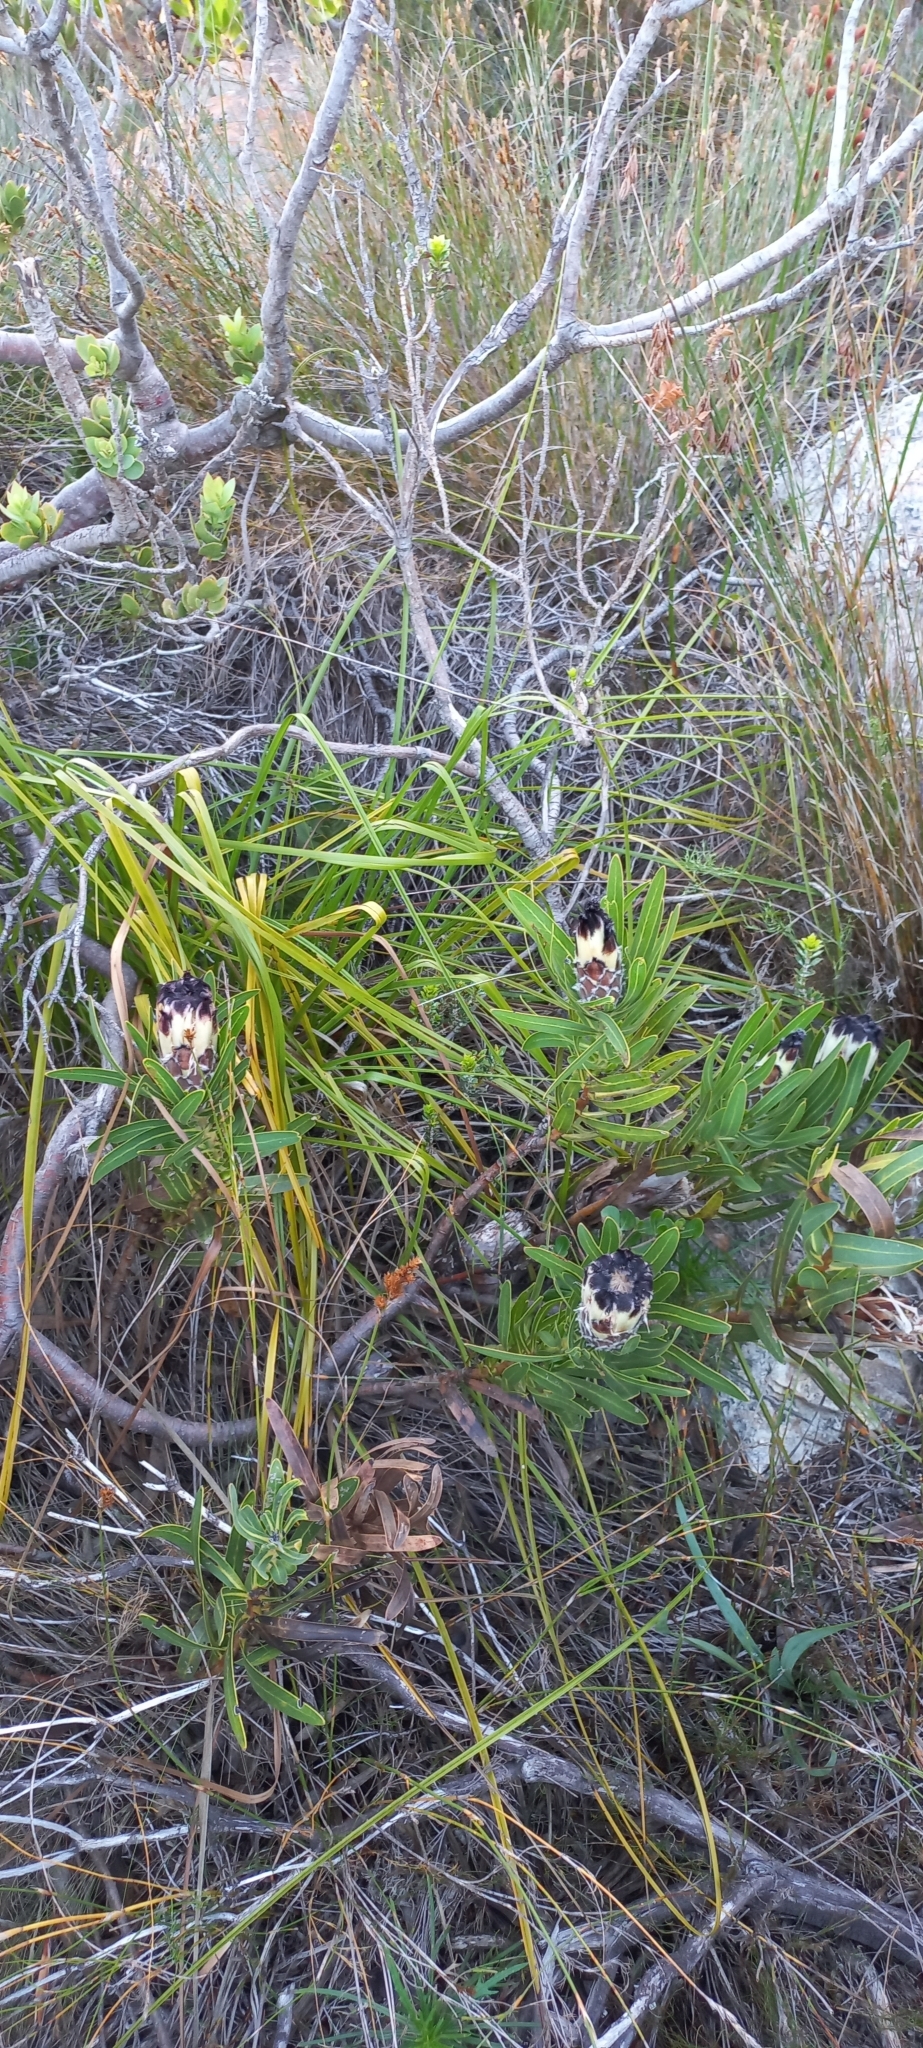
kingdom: Plantae
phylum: Tracheophyta
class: Magnoliopsida
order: Proteales
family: Proteaceae
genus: Protea
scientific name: Protea lepidocarpodendron
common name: Black-bearded protea
